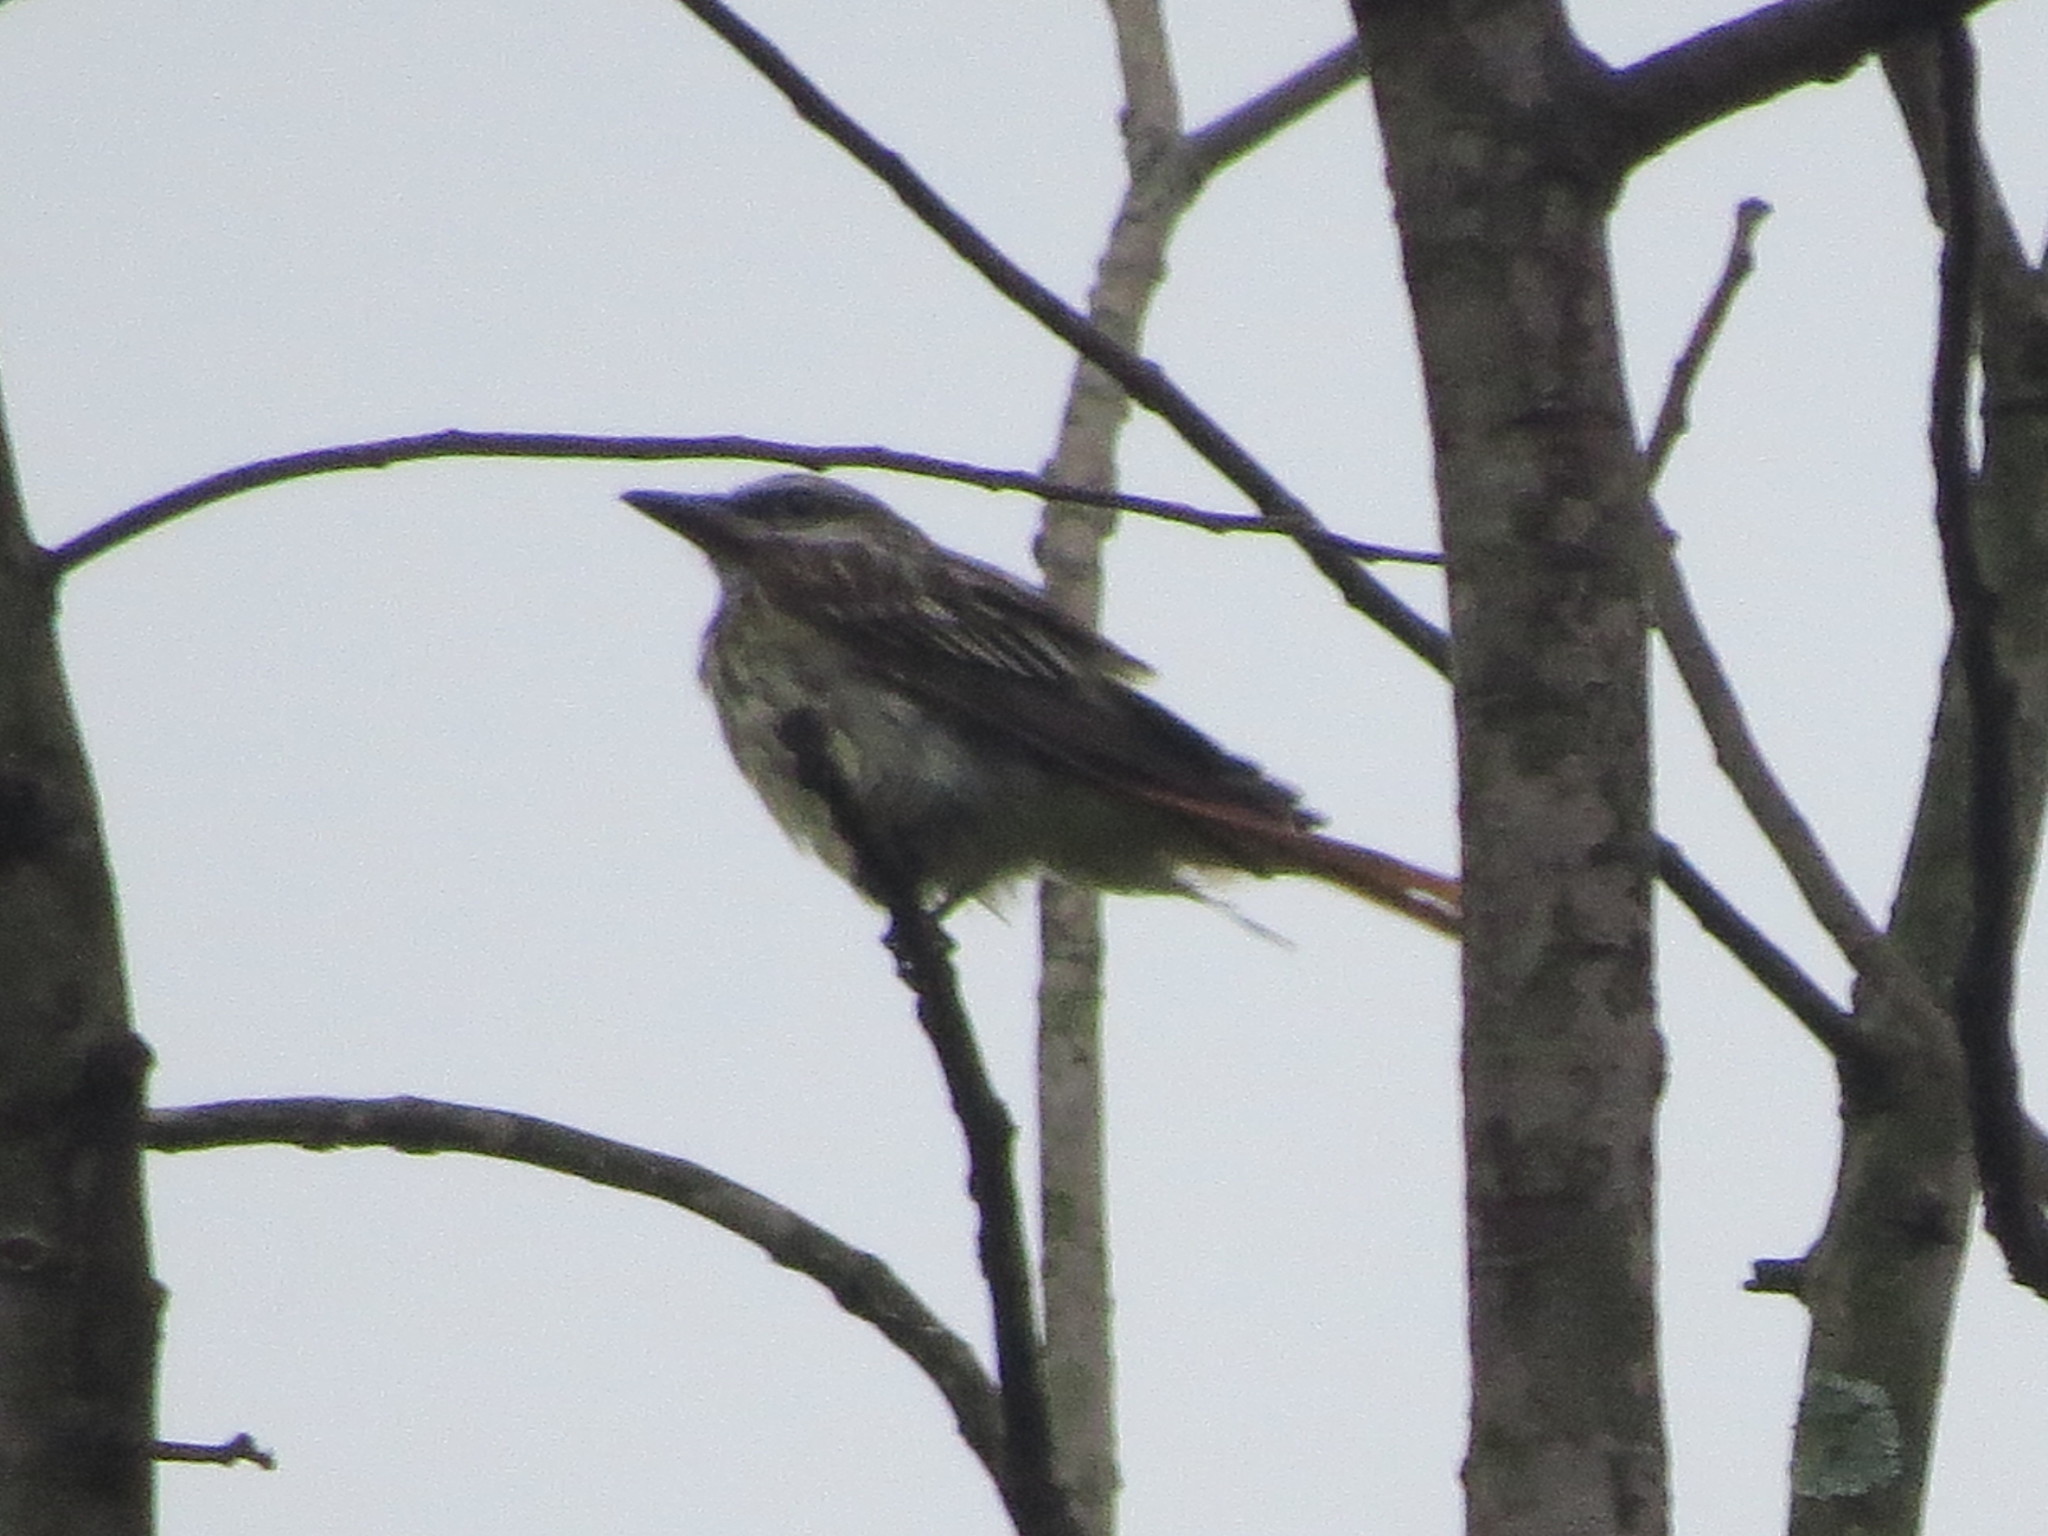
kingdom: Animalia
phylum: Chordata
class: Aves
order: Passeriformes
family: Tyrannidae
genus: Myiodynastes
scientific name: Myiodynastes luteiventris
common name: Sulphur-bellied flycatcher
